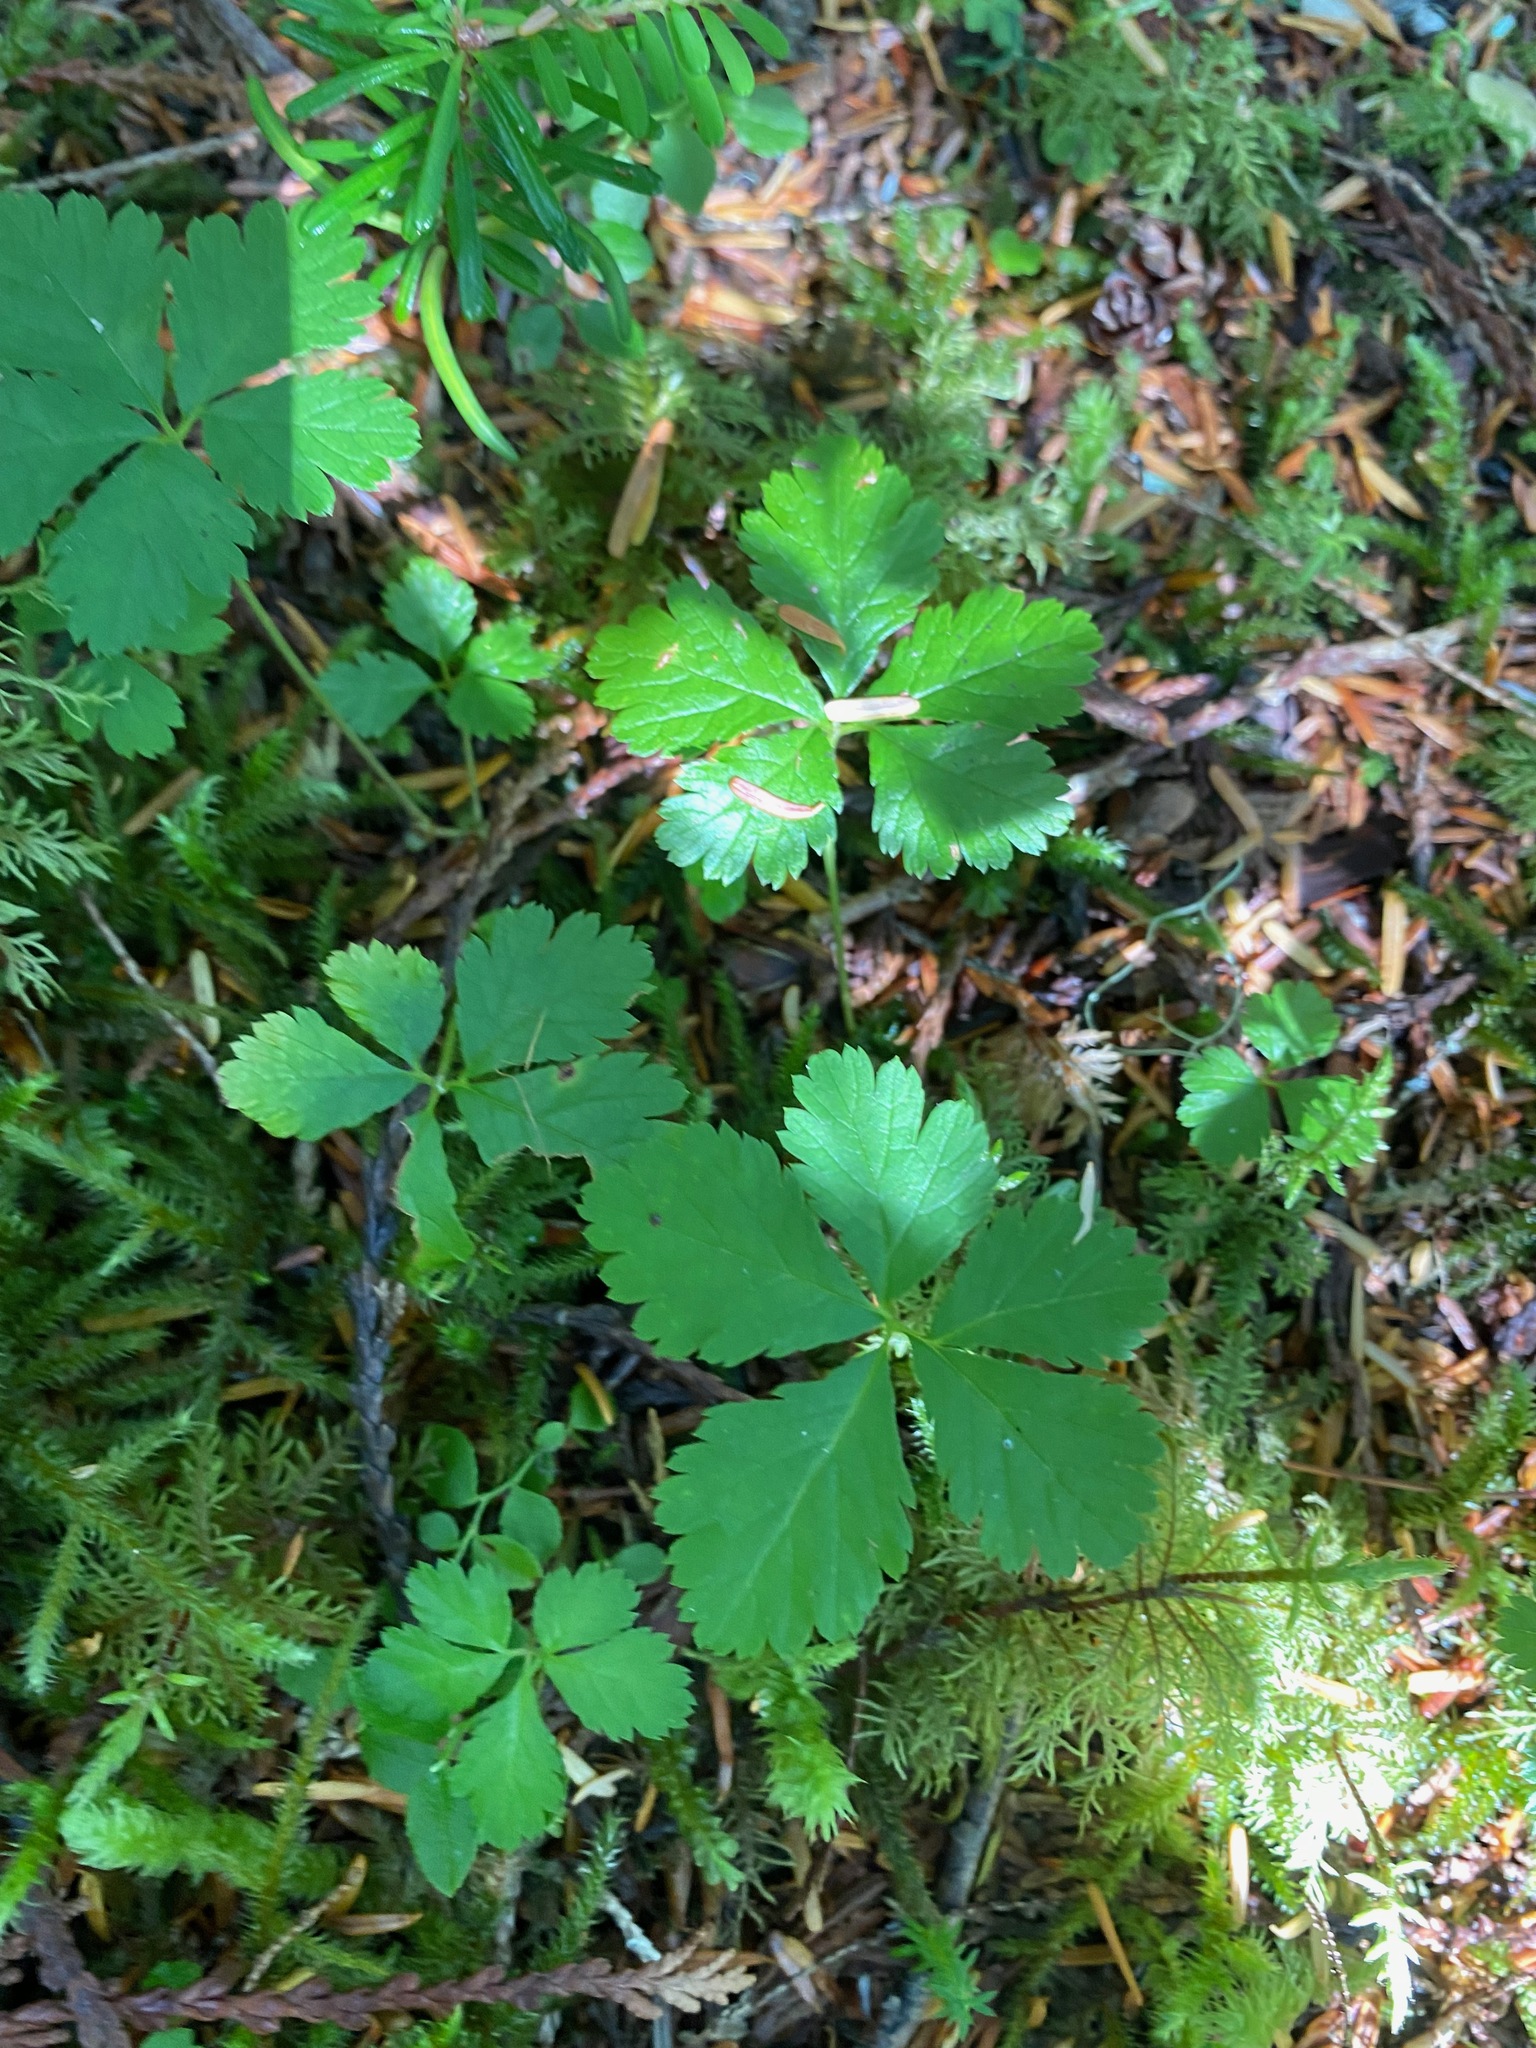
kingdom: Plantae
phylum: Tracheophyta
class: Magnoliopsida
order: Rosales
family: Rosaceae
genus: Rubus
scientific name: Rubus pedatus
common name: Creeping raspberry
